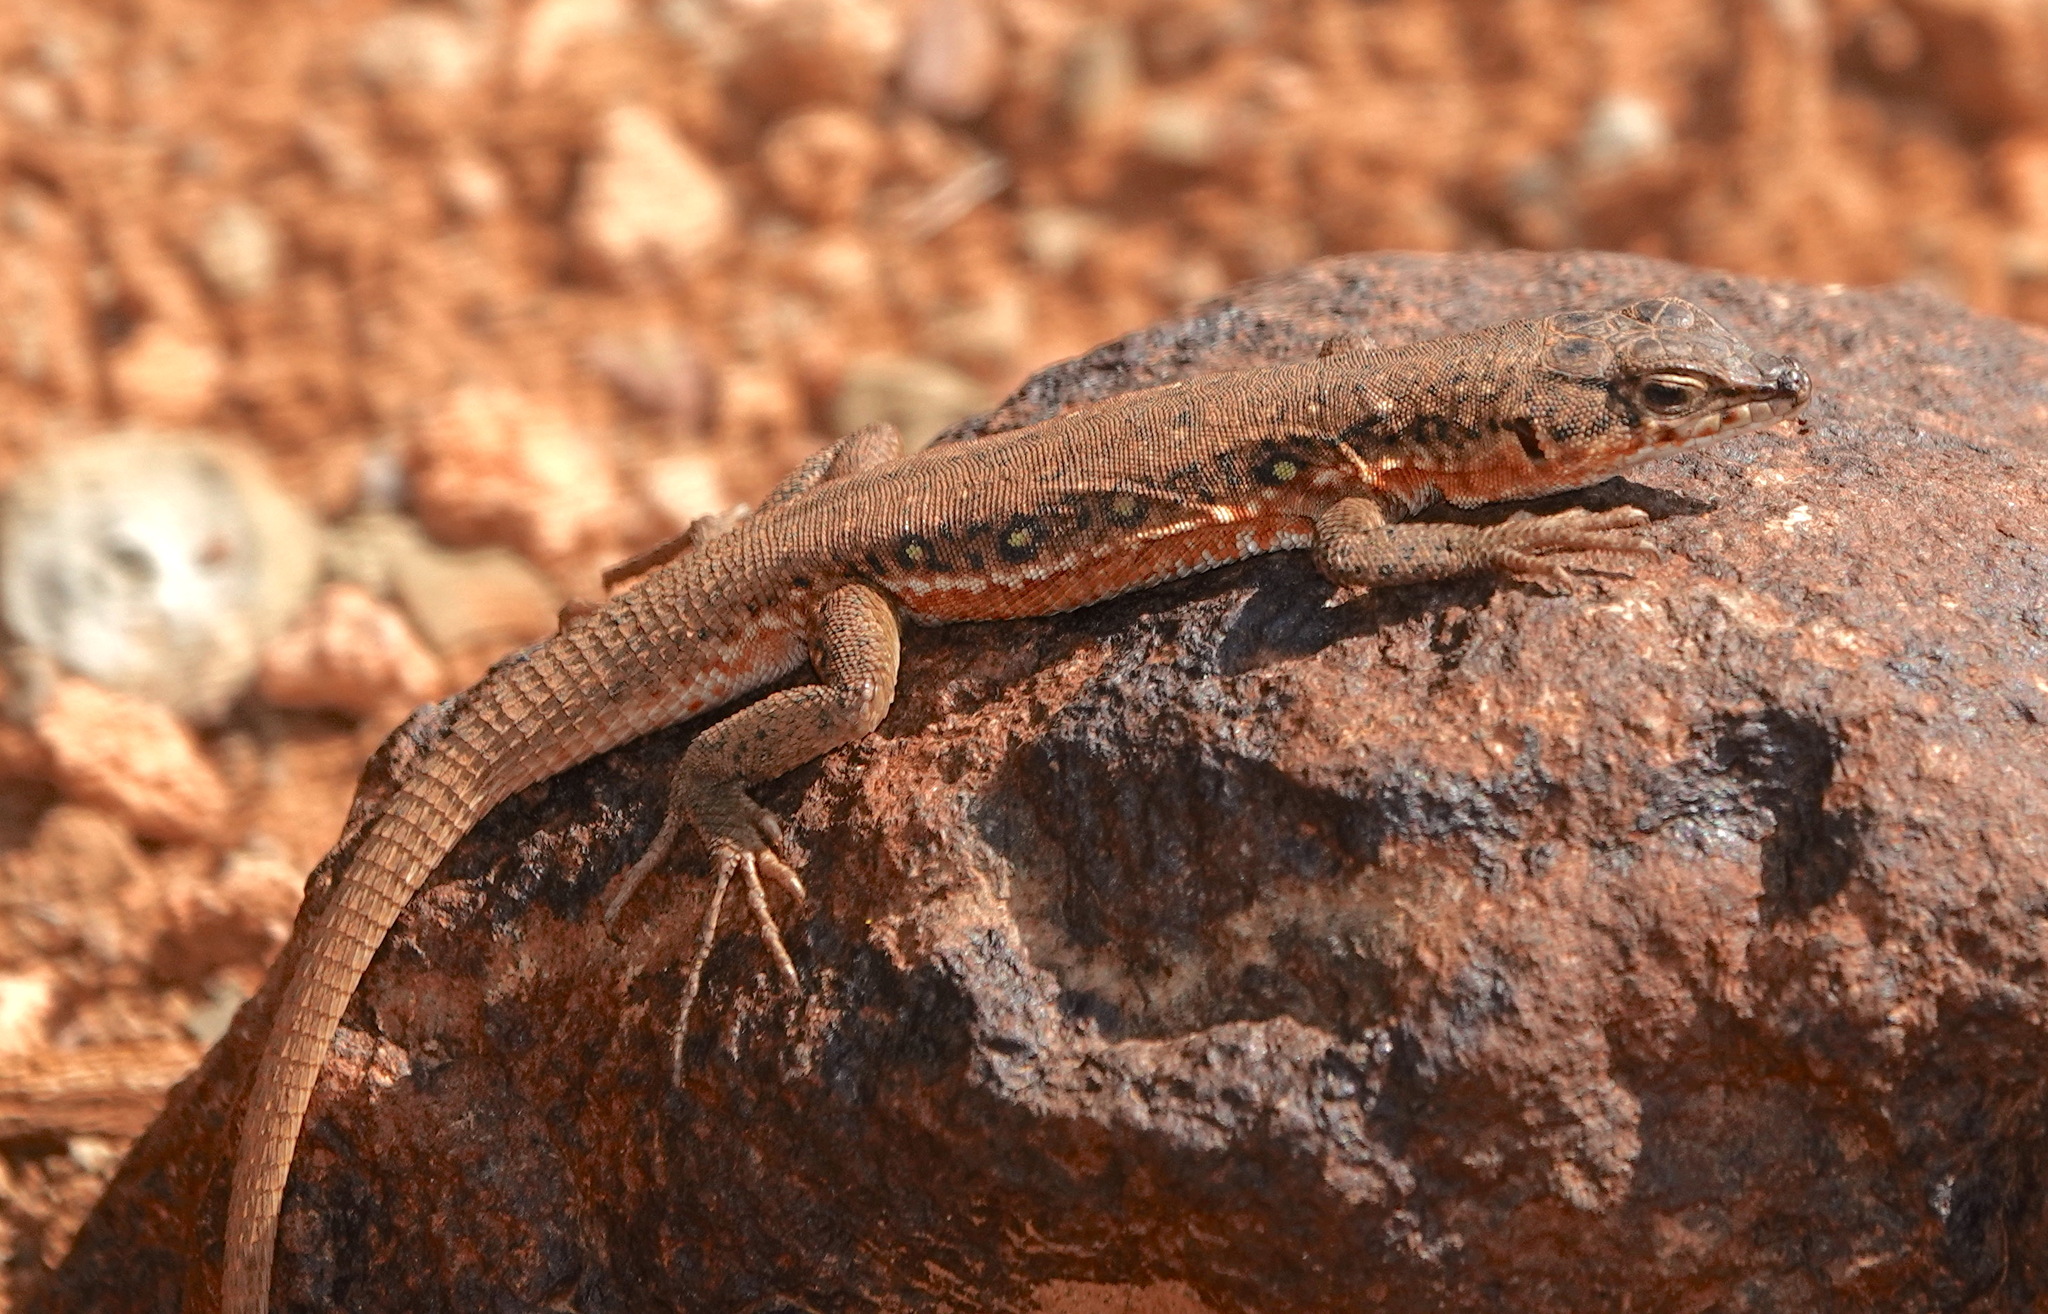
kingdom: Animalia
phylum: Chordata
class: Squamata
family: Lacertidae
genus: Pedioplanis
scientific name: Pedioplanis lineoocellata
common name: Spotted sand lizard
